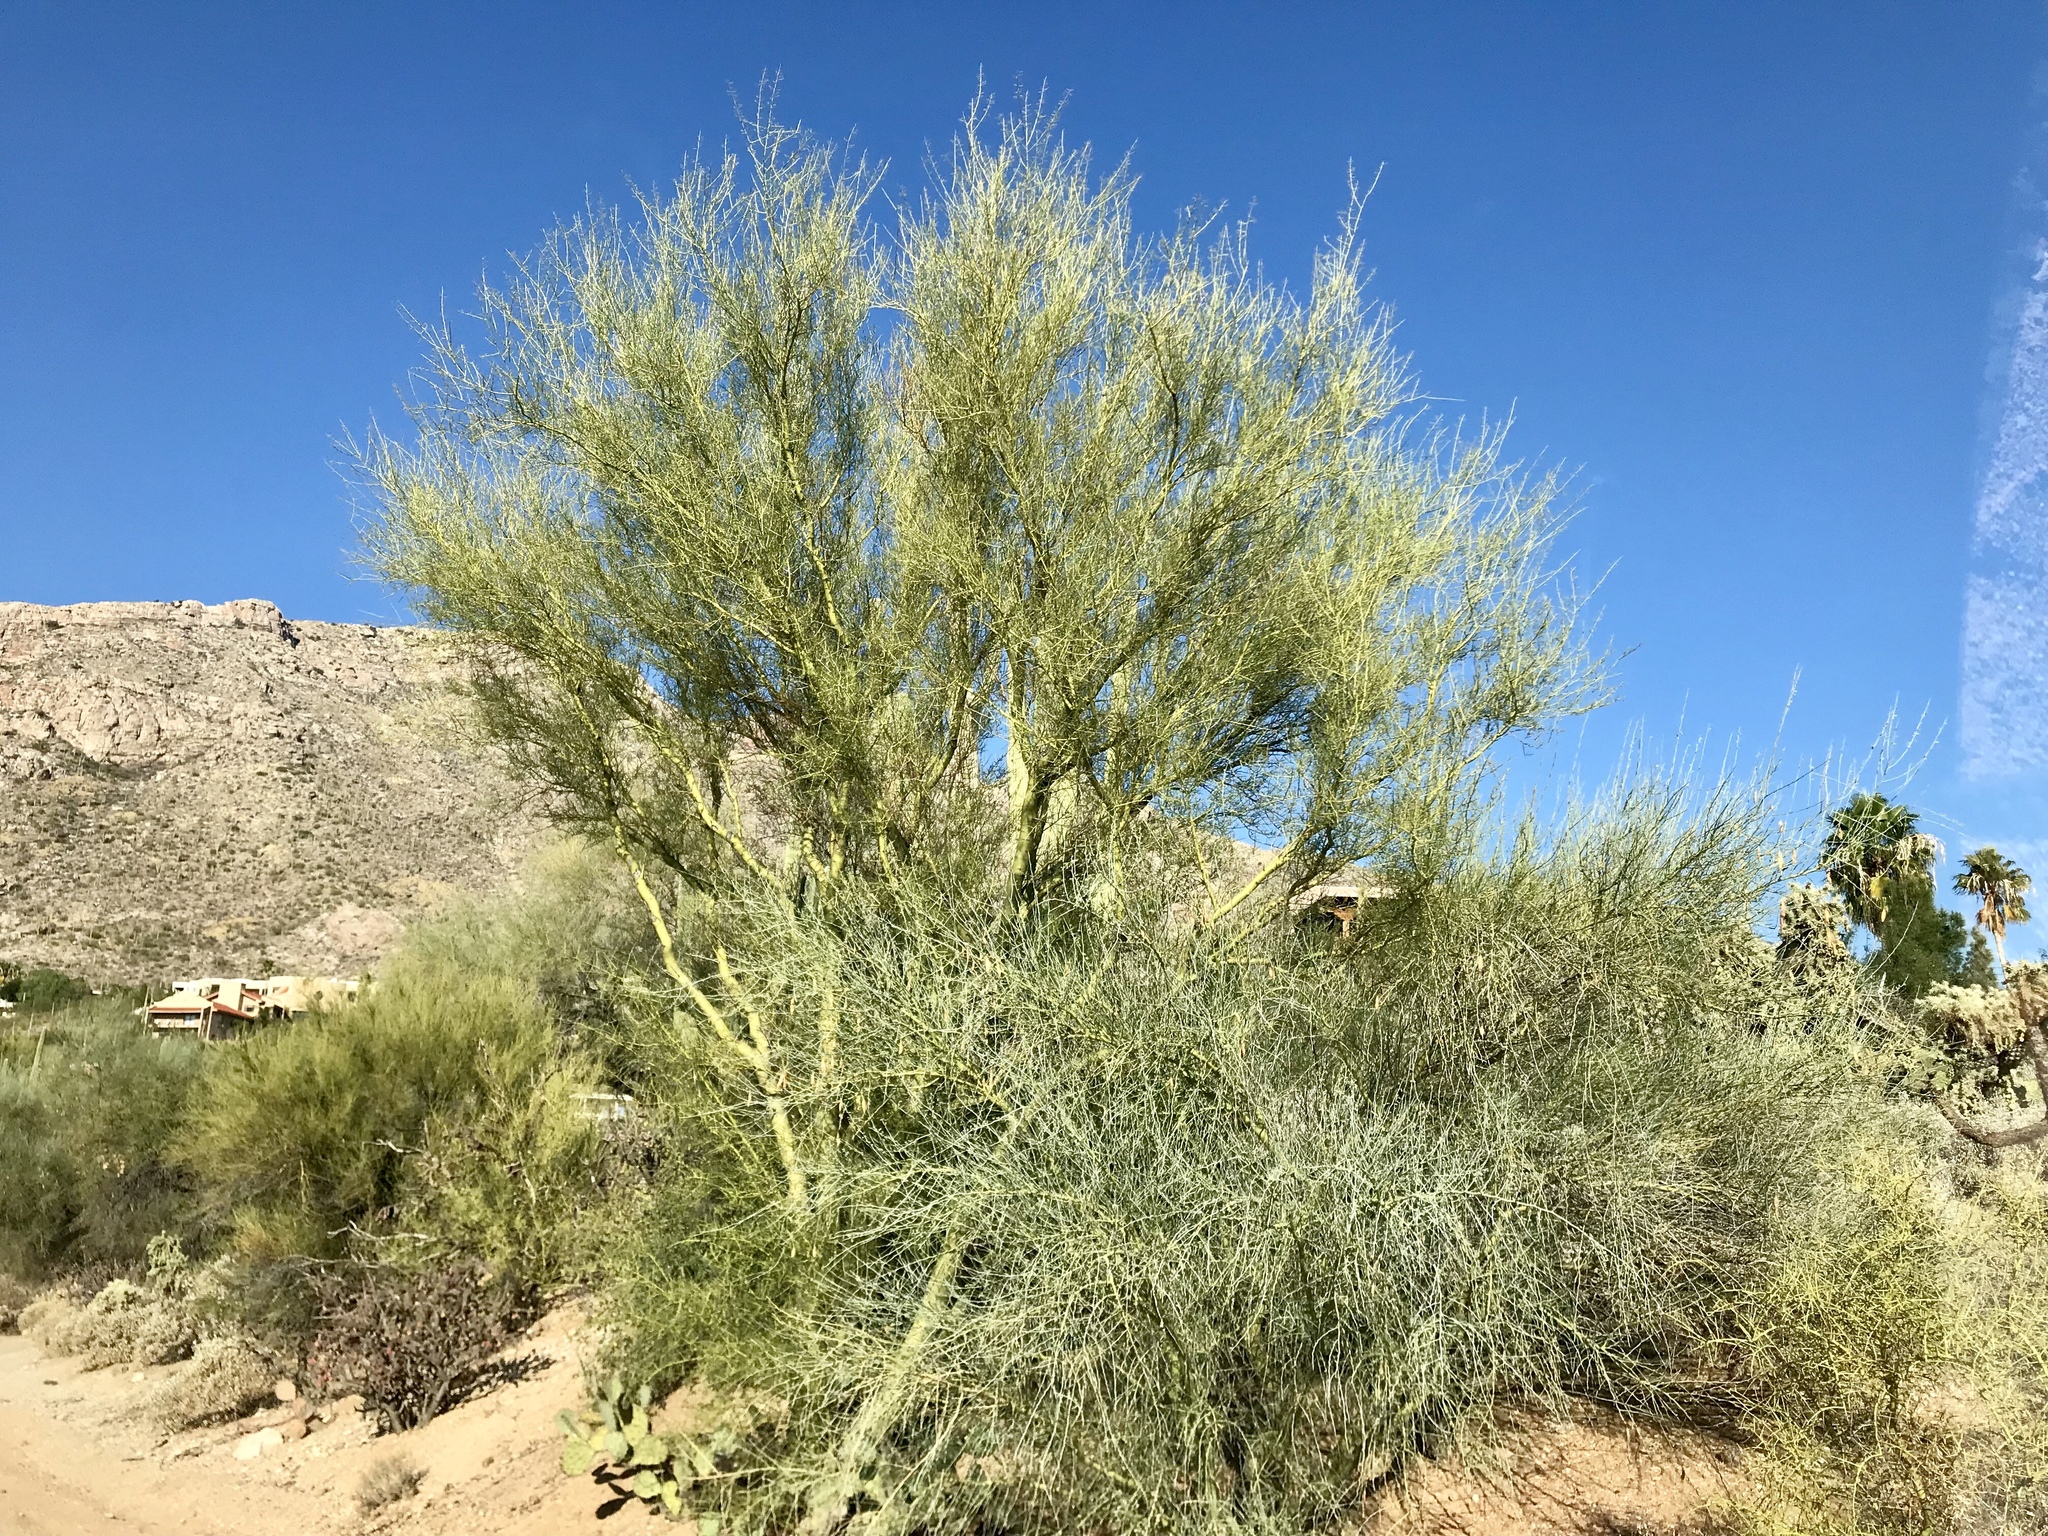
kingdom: Plantae
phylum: Tracheophyta
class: Magnoliopsida
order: Fabales
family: Fabaceae
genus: Parkinsonia
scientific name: Parkinsonia florida
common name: Blue paloverde
